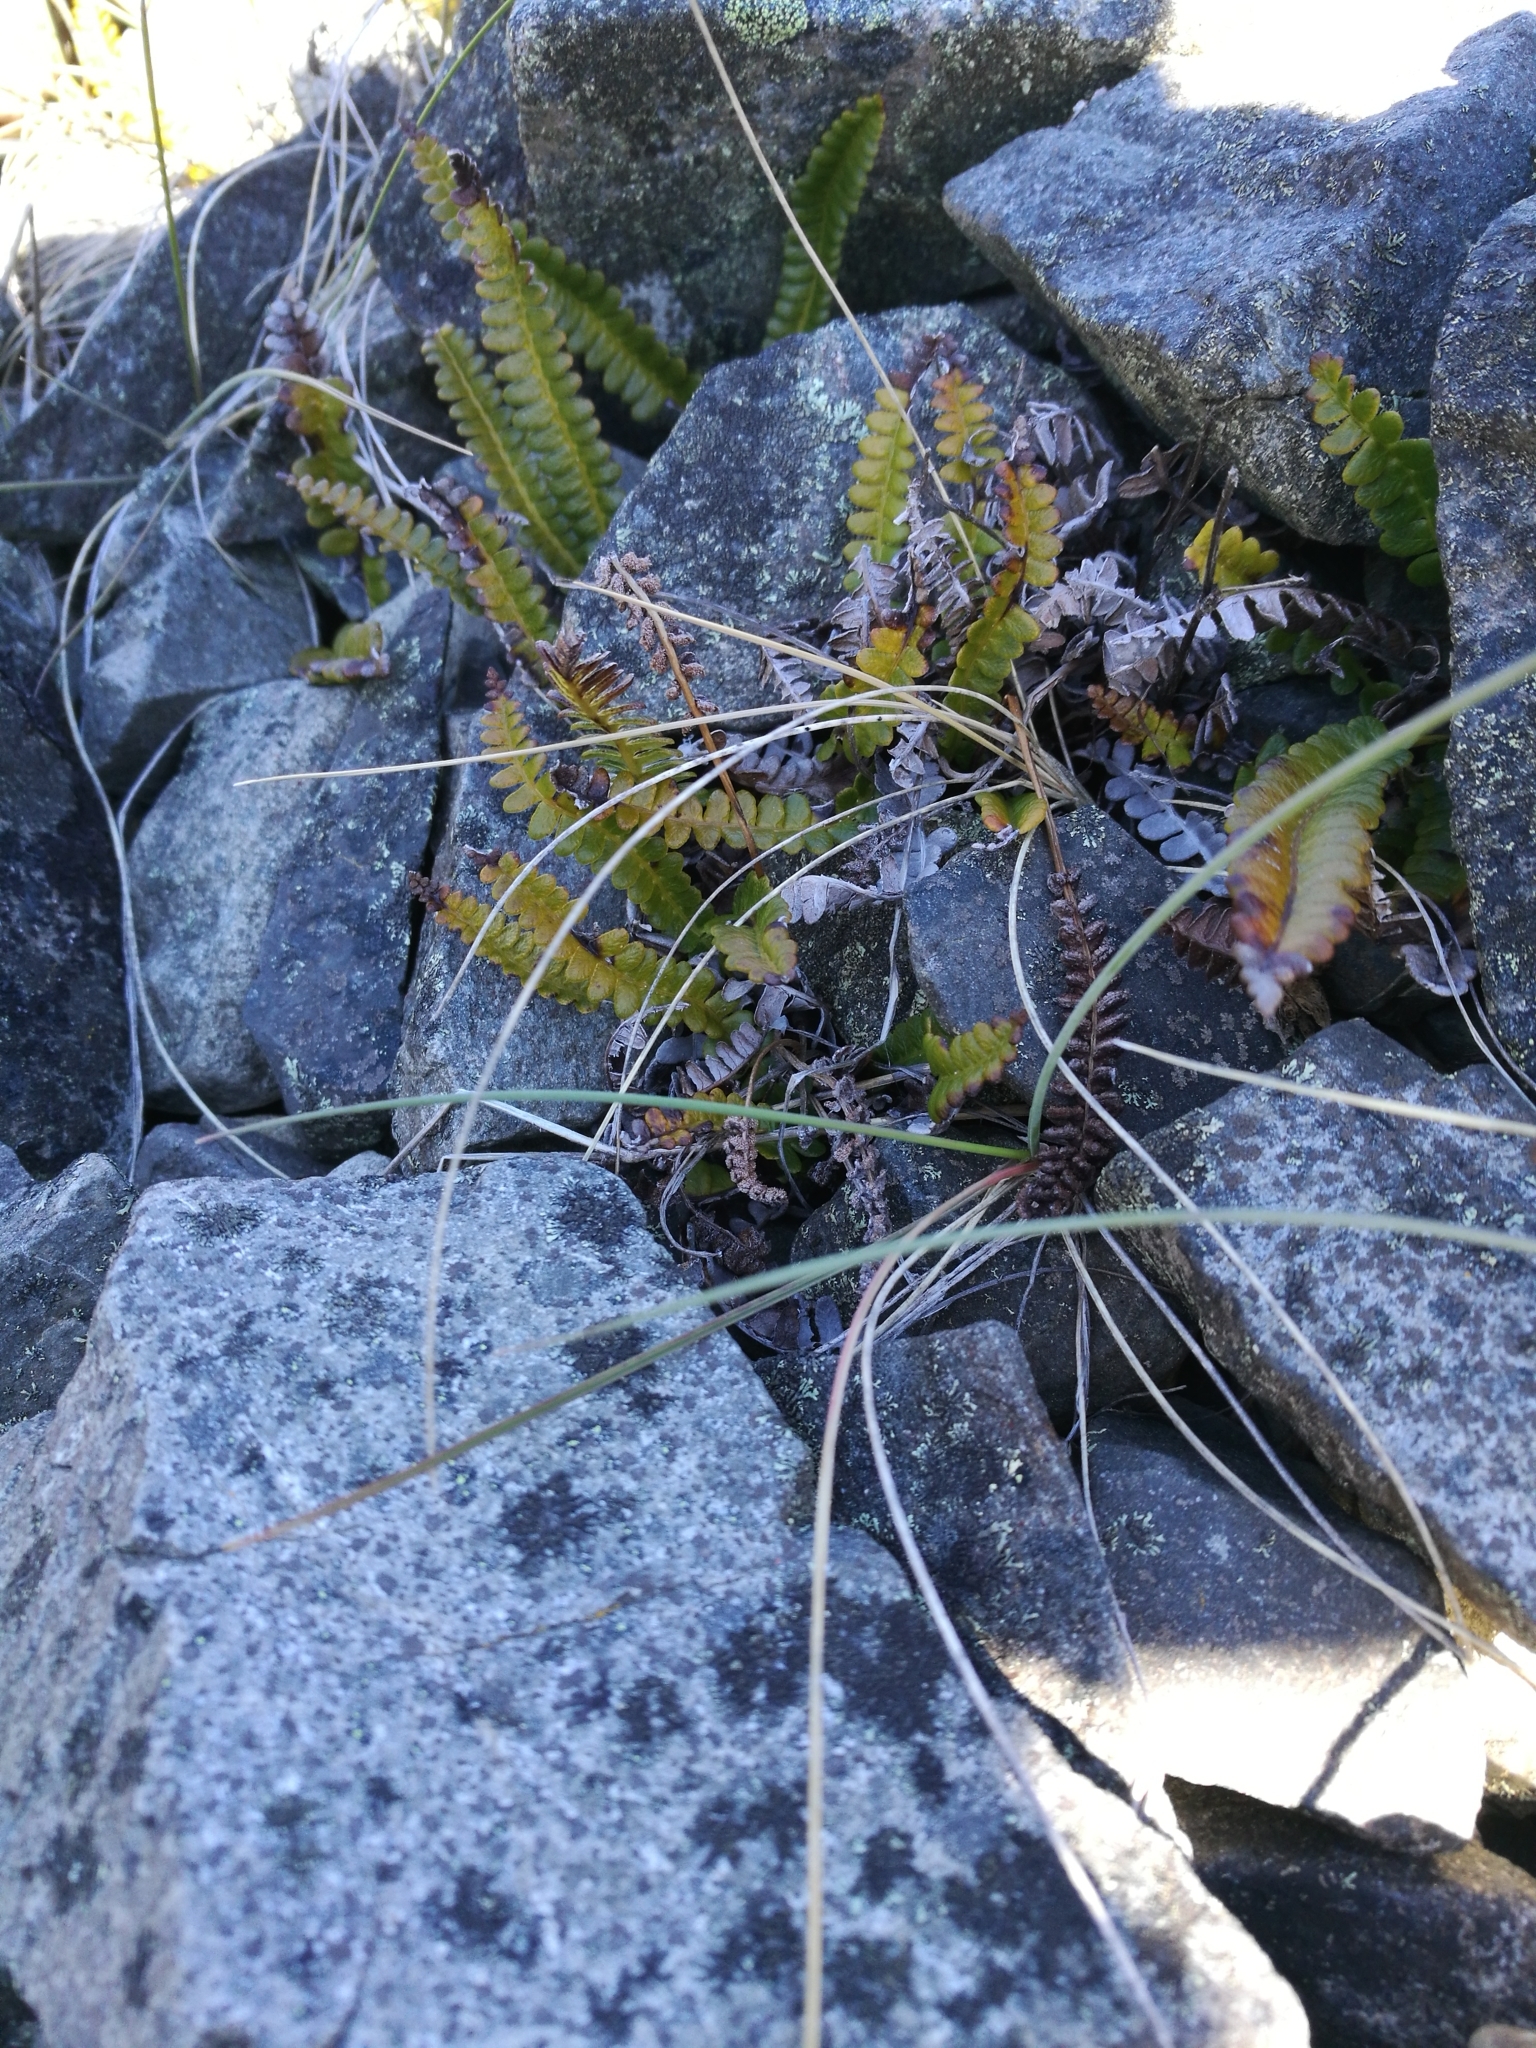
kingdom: Plantae
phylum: Tracheophyta
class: Polypodiopsida
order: Polypodiales
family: Blechnaceae
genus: Austroblechnum
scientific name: Austroblechnum penna-marina
